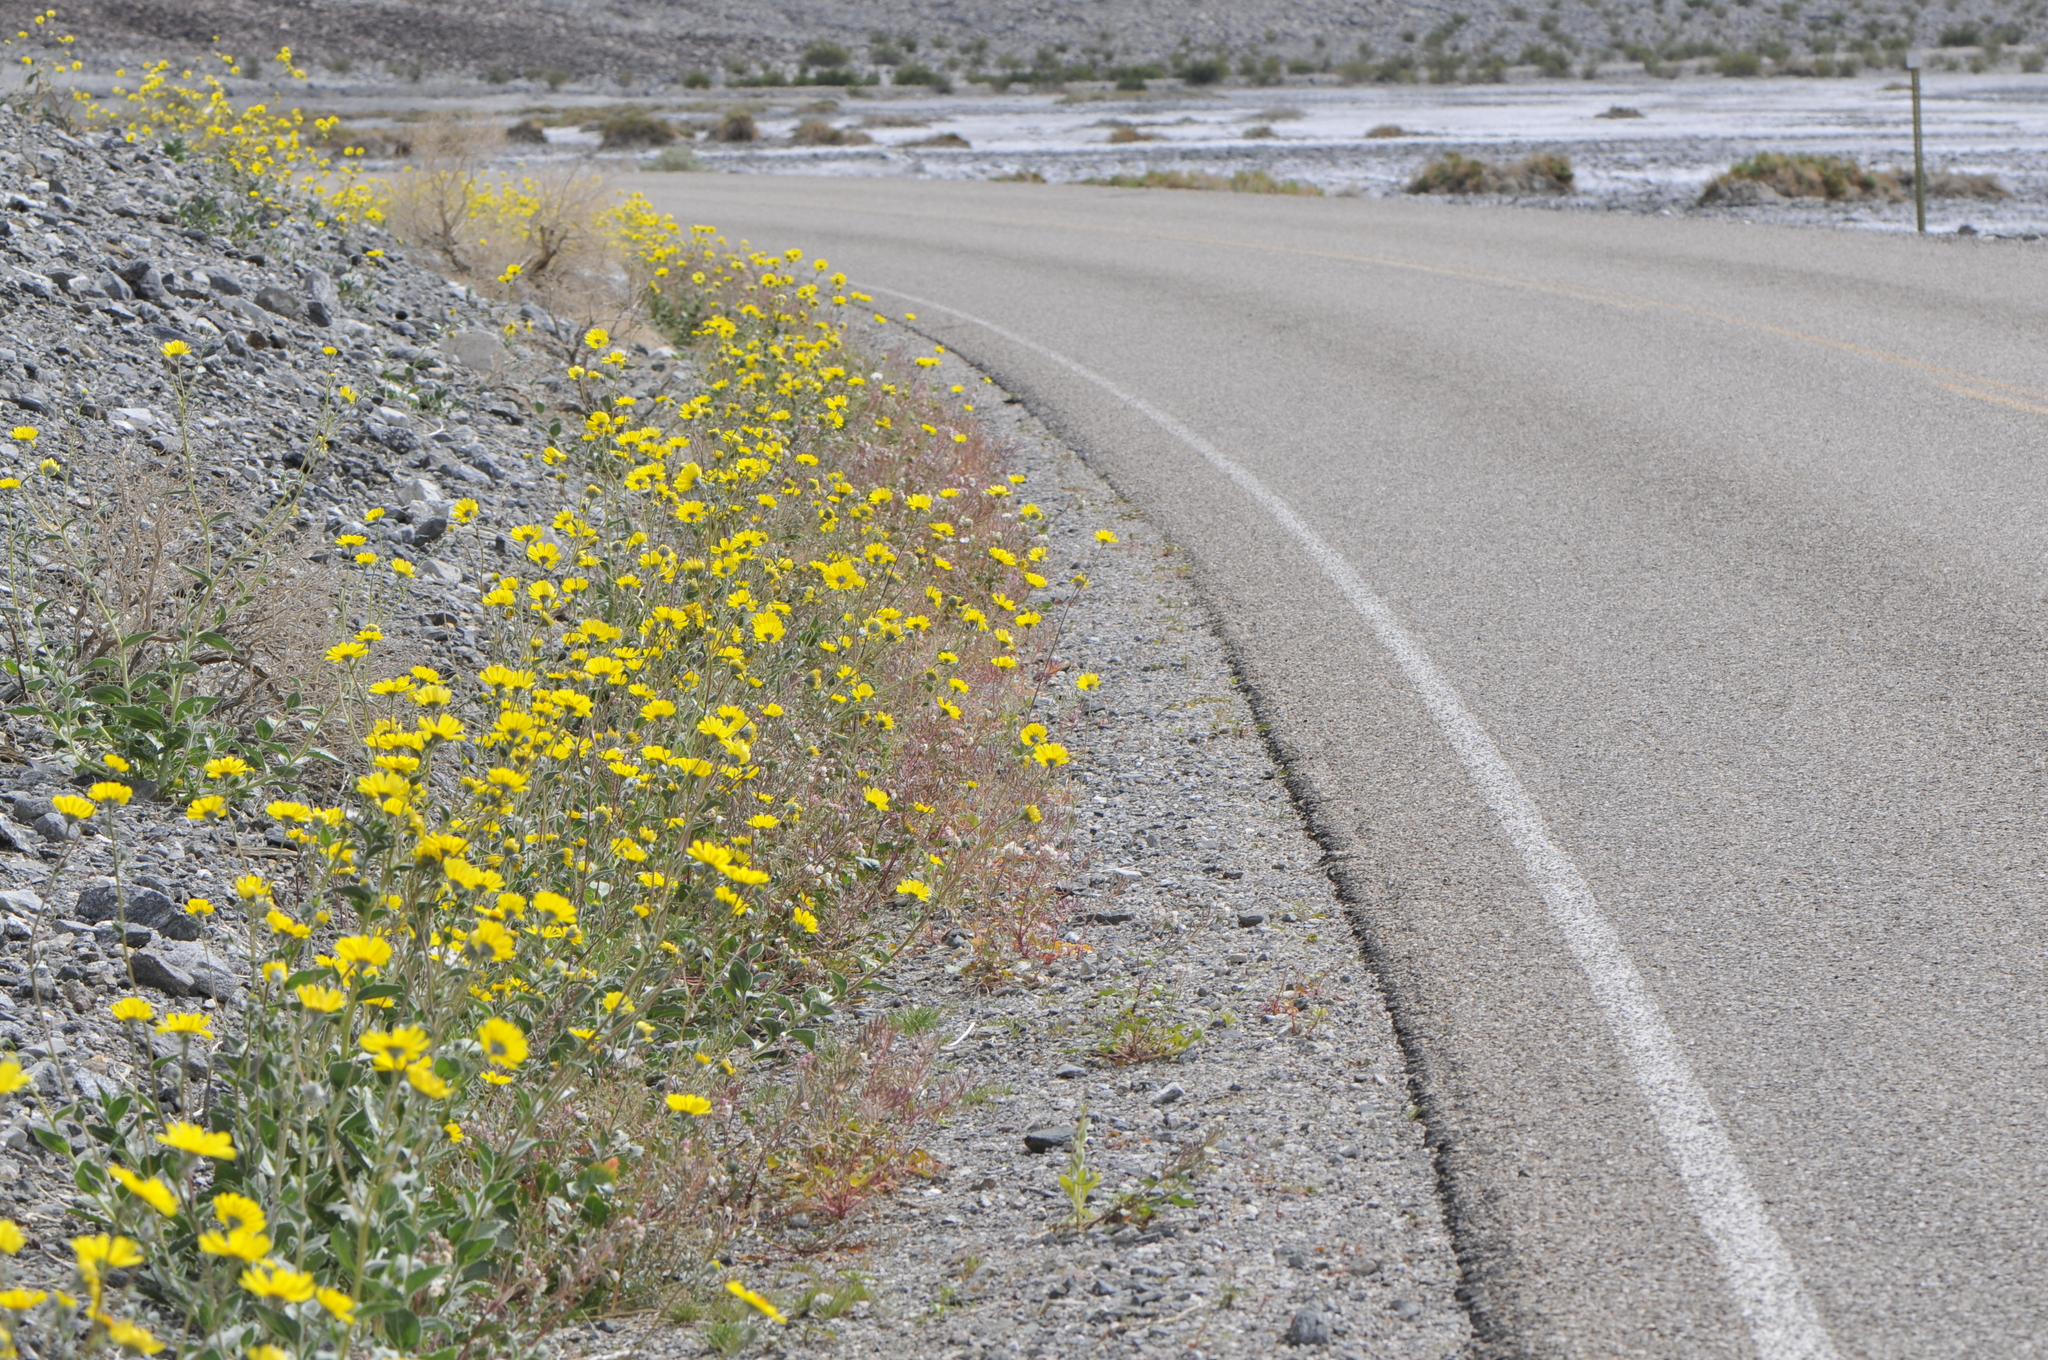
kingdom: Plantae
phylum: Tracheophyta
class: Magnoliopsida
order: Asterales
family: Asteraceae
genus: Geraea
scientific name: Geraea canescens
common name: Desert-gold
